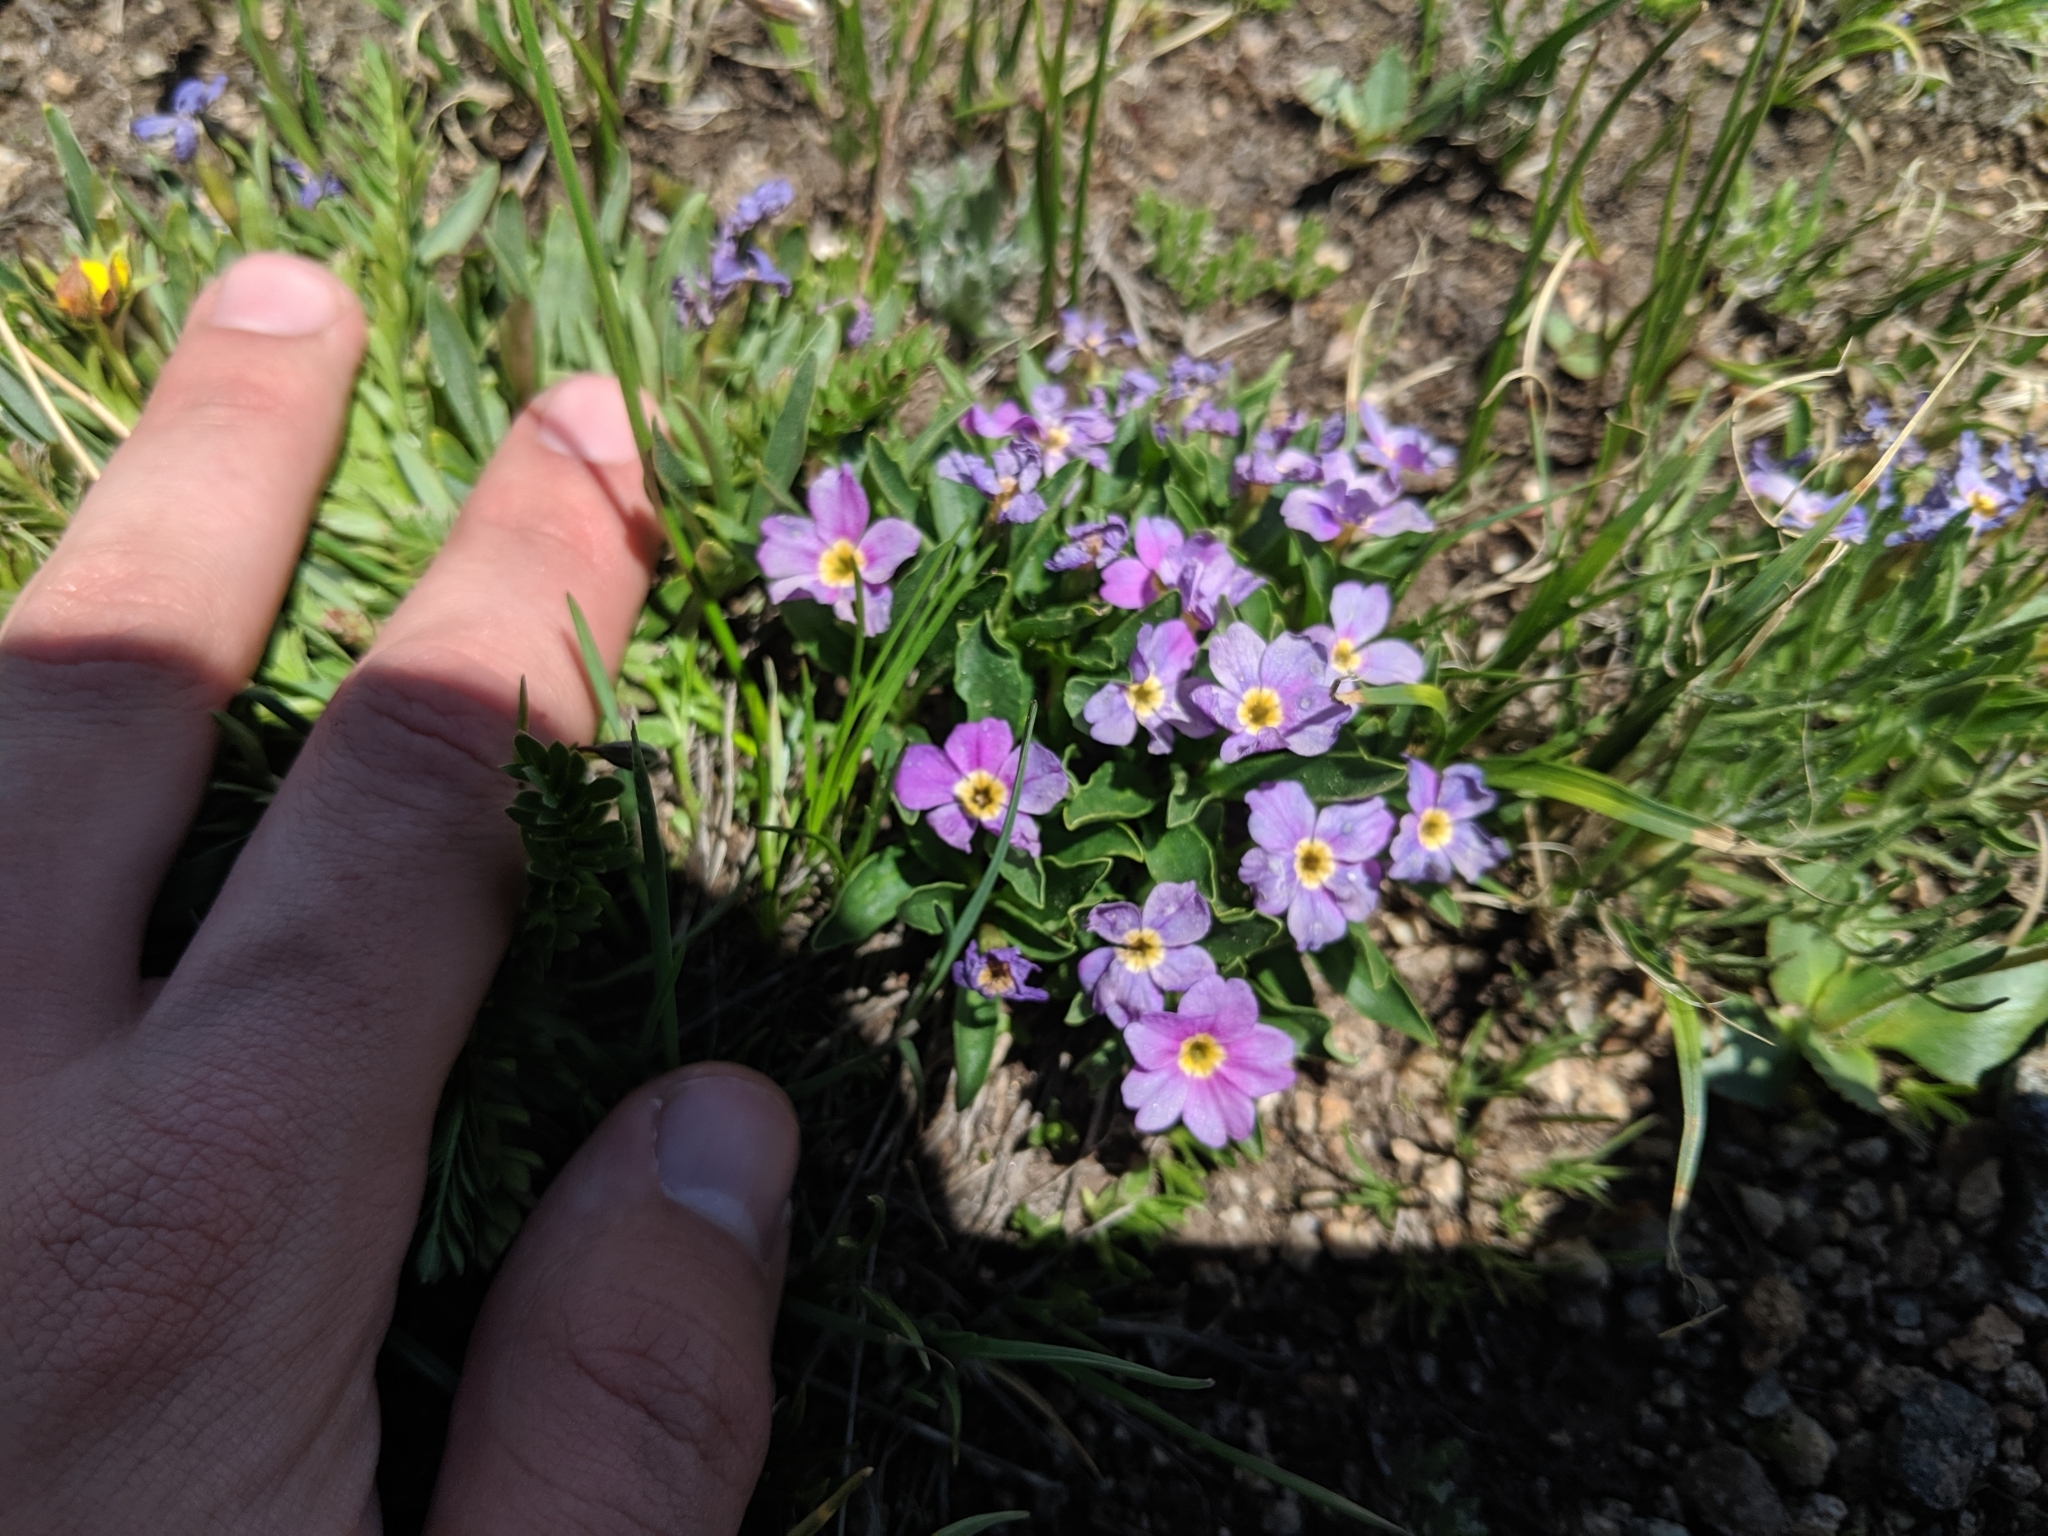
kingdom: Plantae
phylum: Tracheophyta
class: Magnoliopsida
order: Ericales
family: Primulaceae
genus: Primula
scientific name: Primula angustifolia
